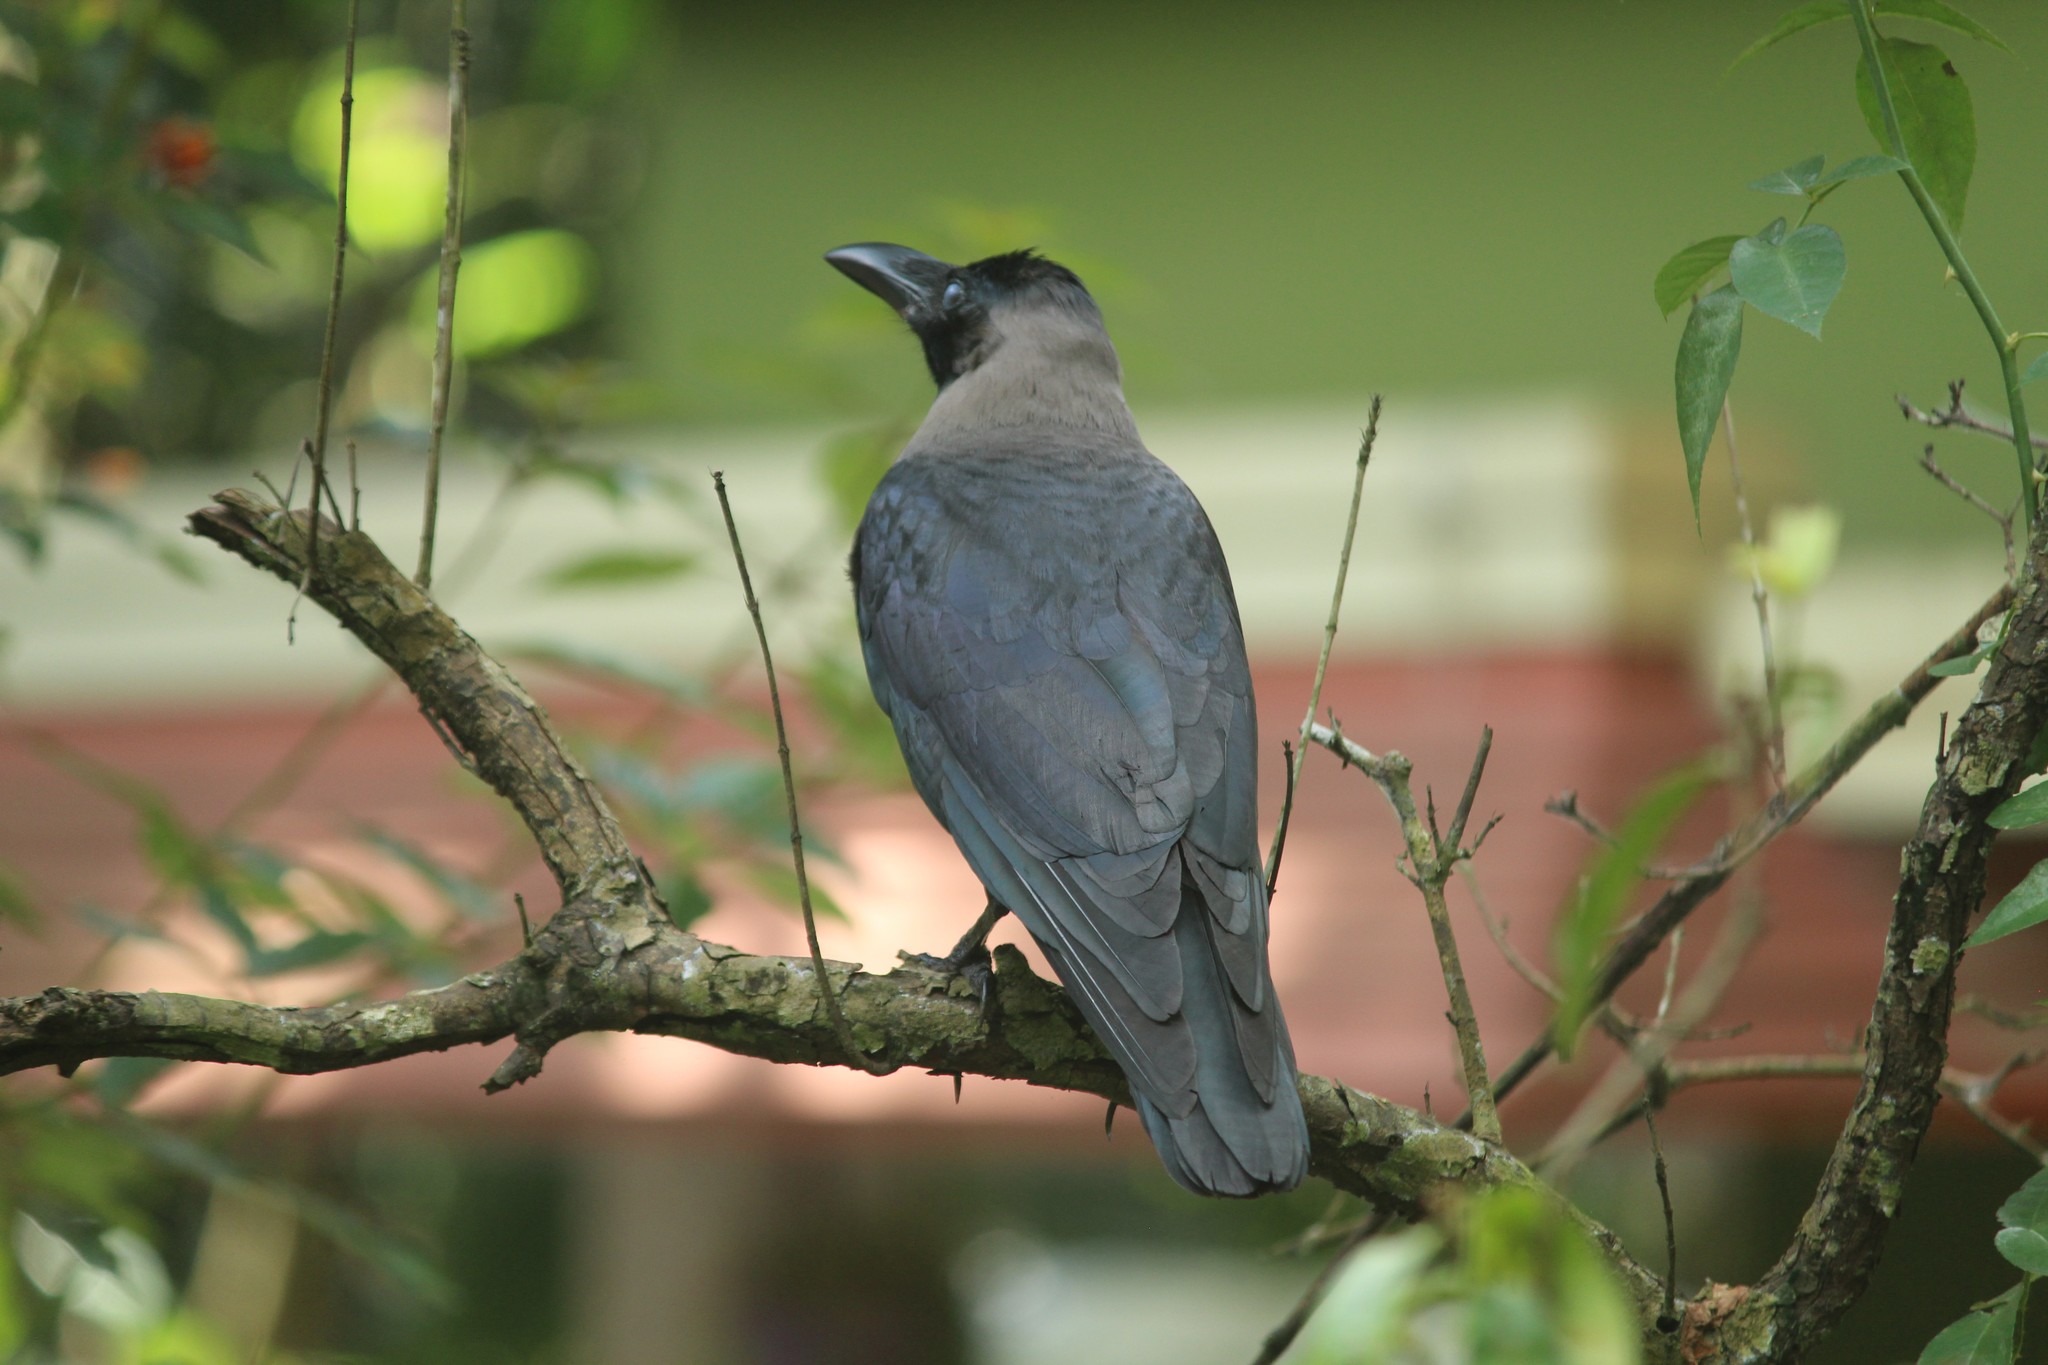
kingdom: Animalia
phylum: Chordata
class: Aves
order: Passeriformes
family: Corvidae
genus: Corvus
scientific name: Corvus splendens
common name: House crow
